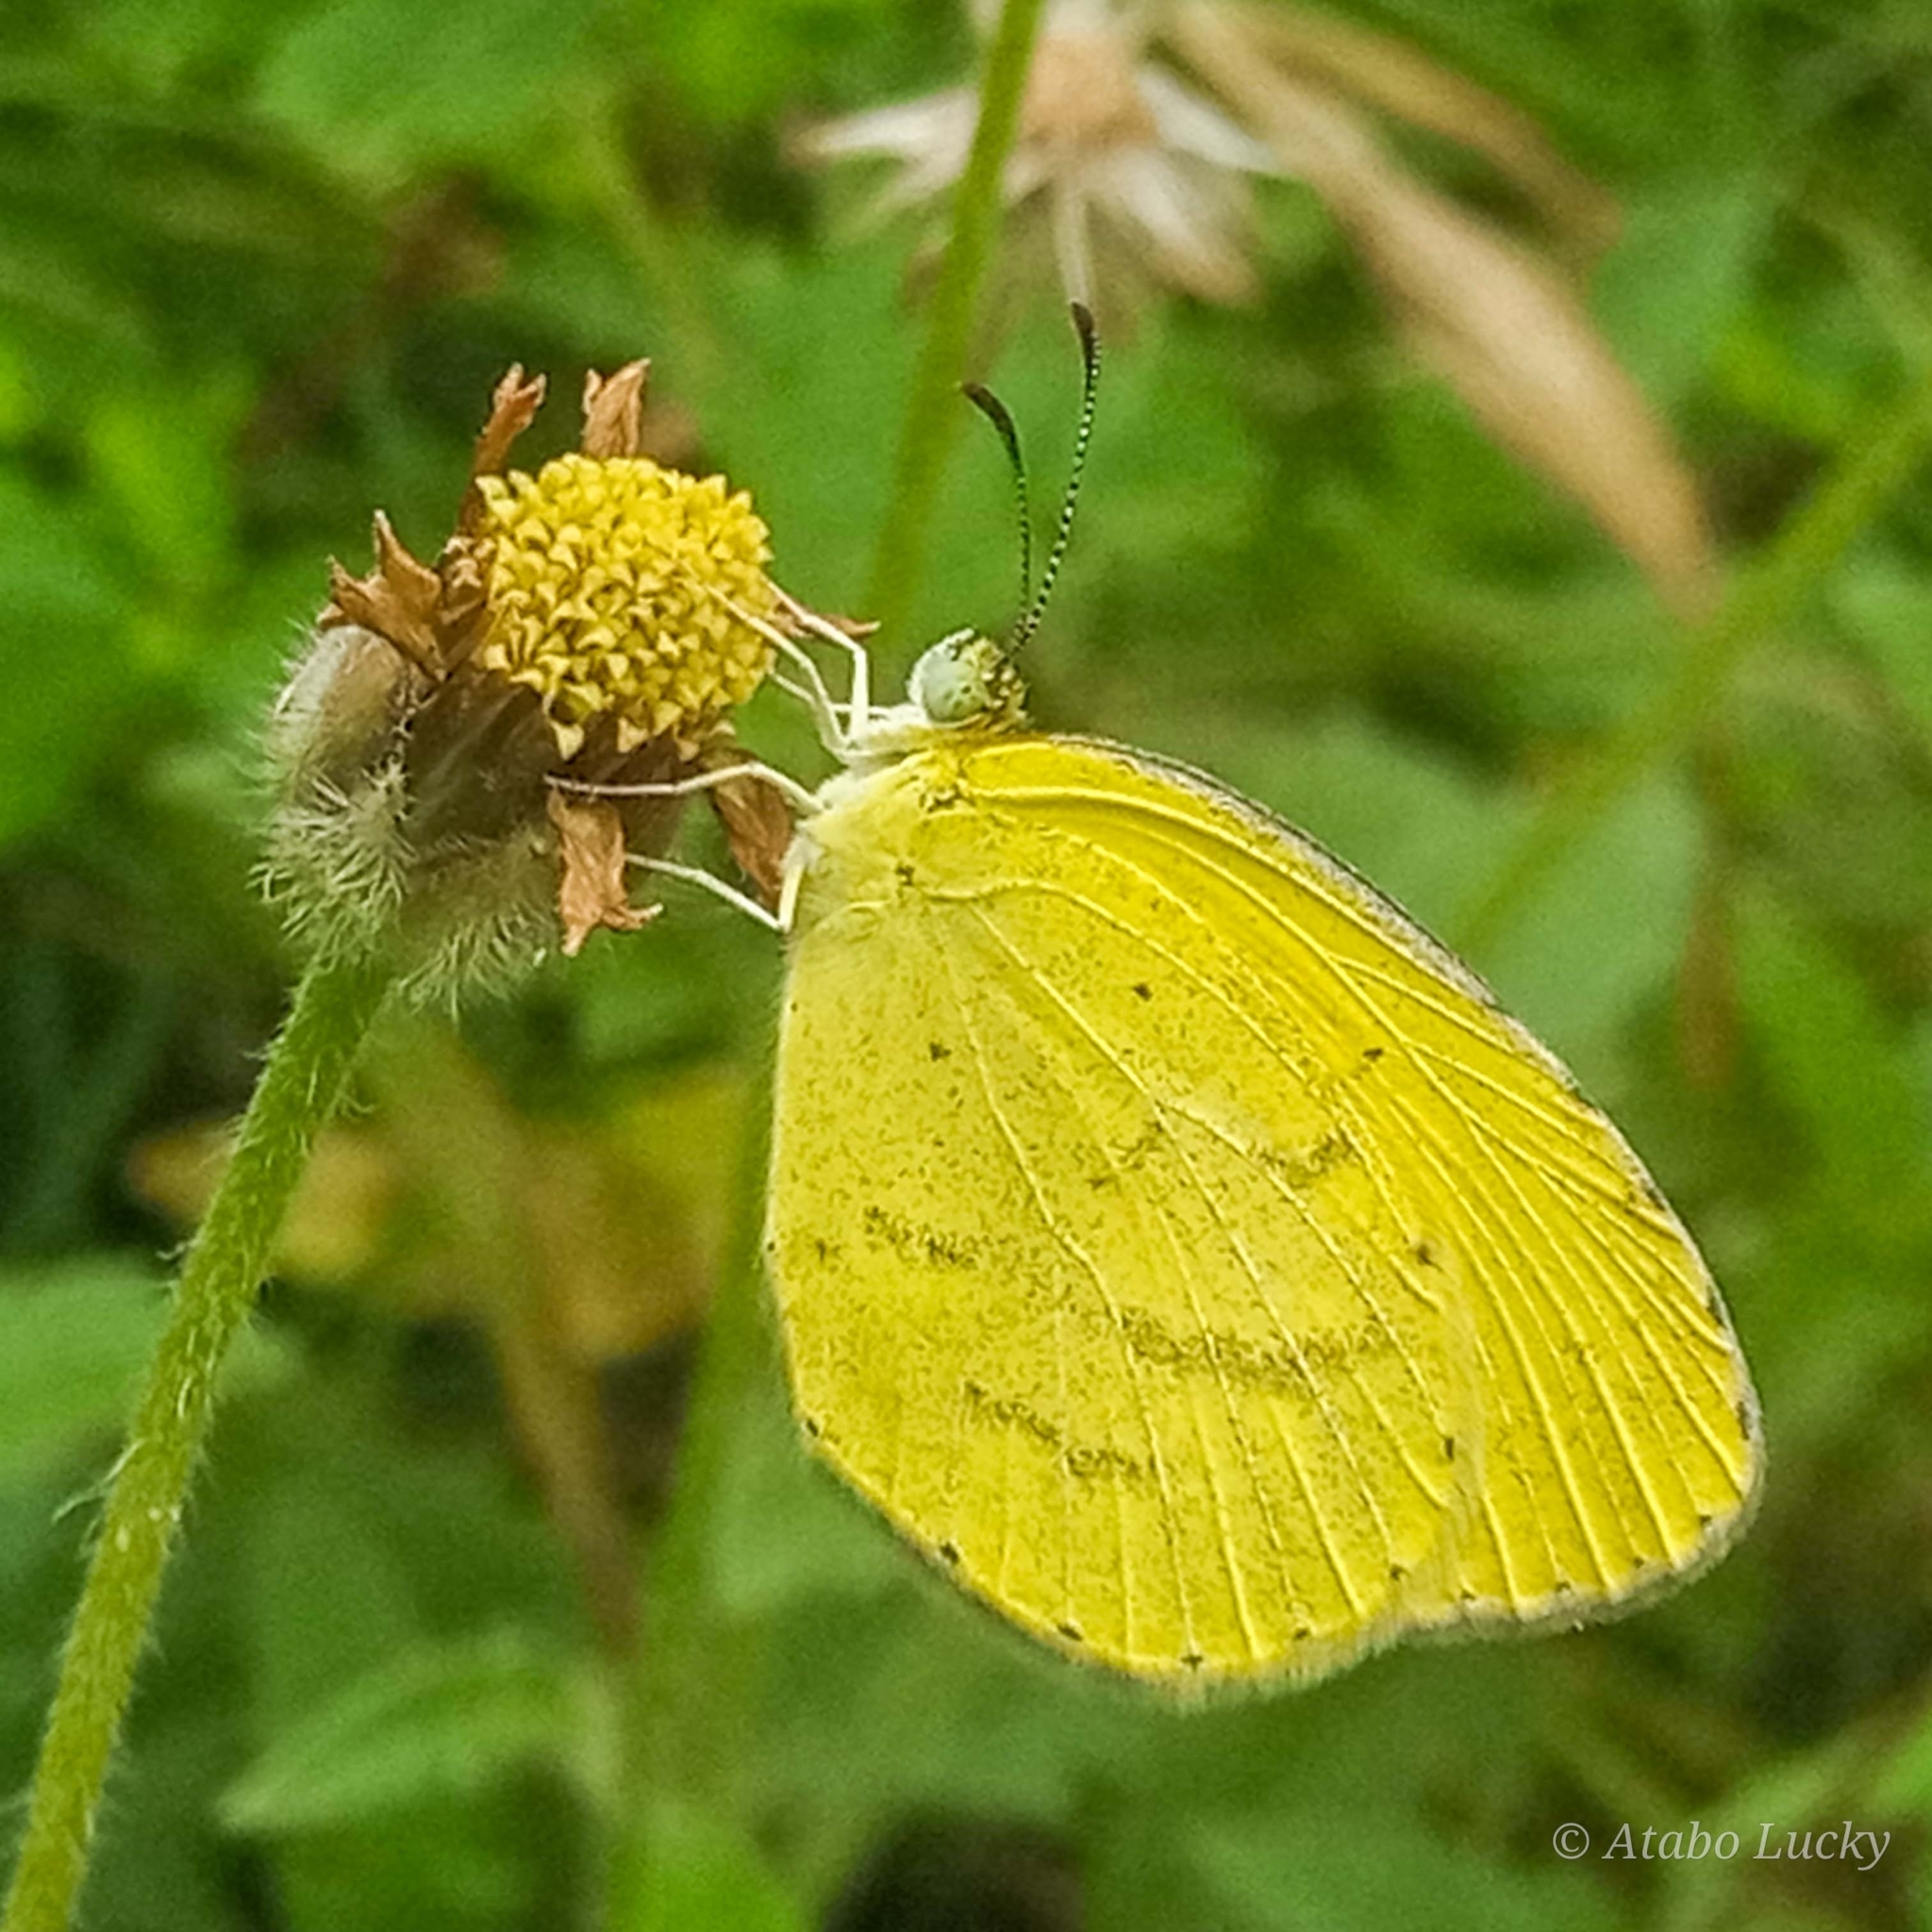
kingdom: Animalia
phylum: Arthropoda
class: Insecta
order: Lepidoptera
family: Pieridae
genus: Eurema
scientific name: Eurema brigitta
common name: Small grass yellow
